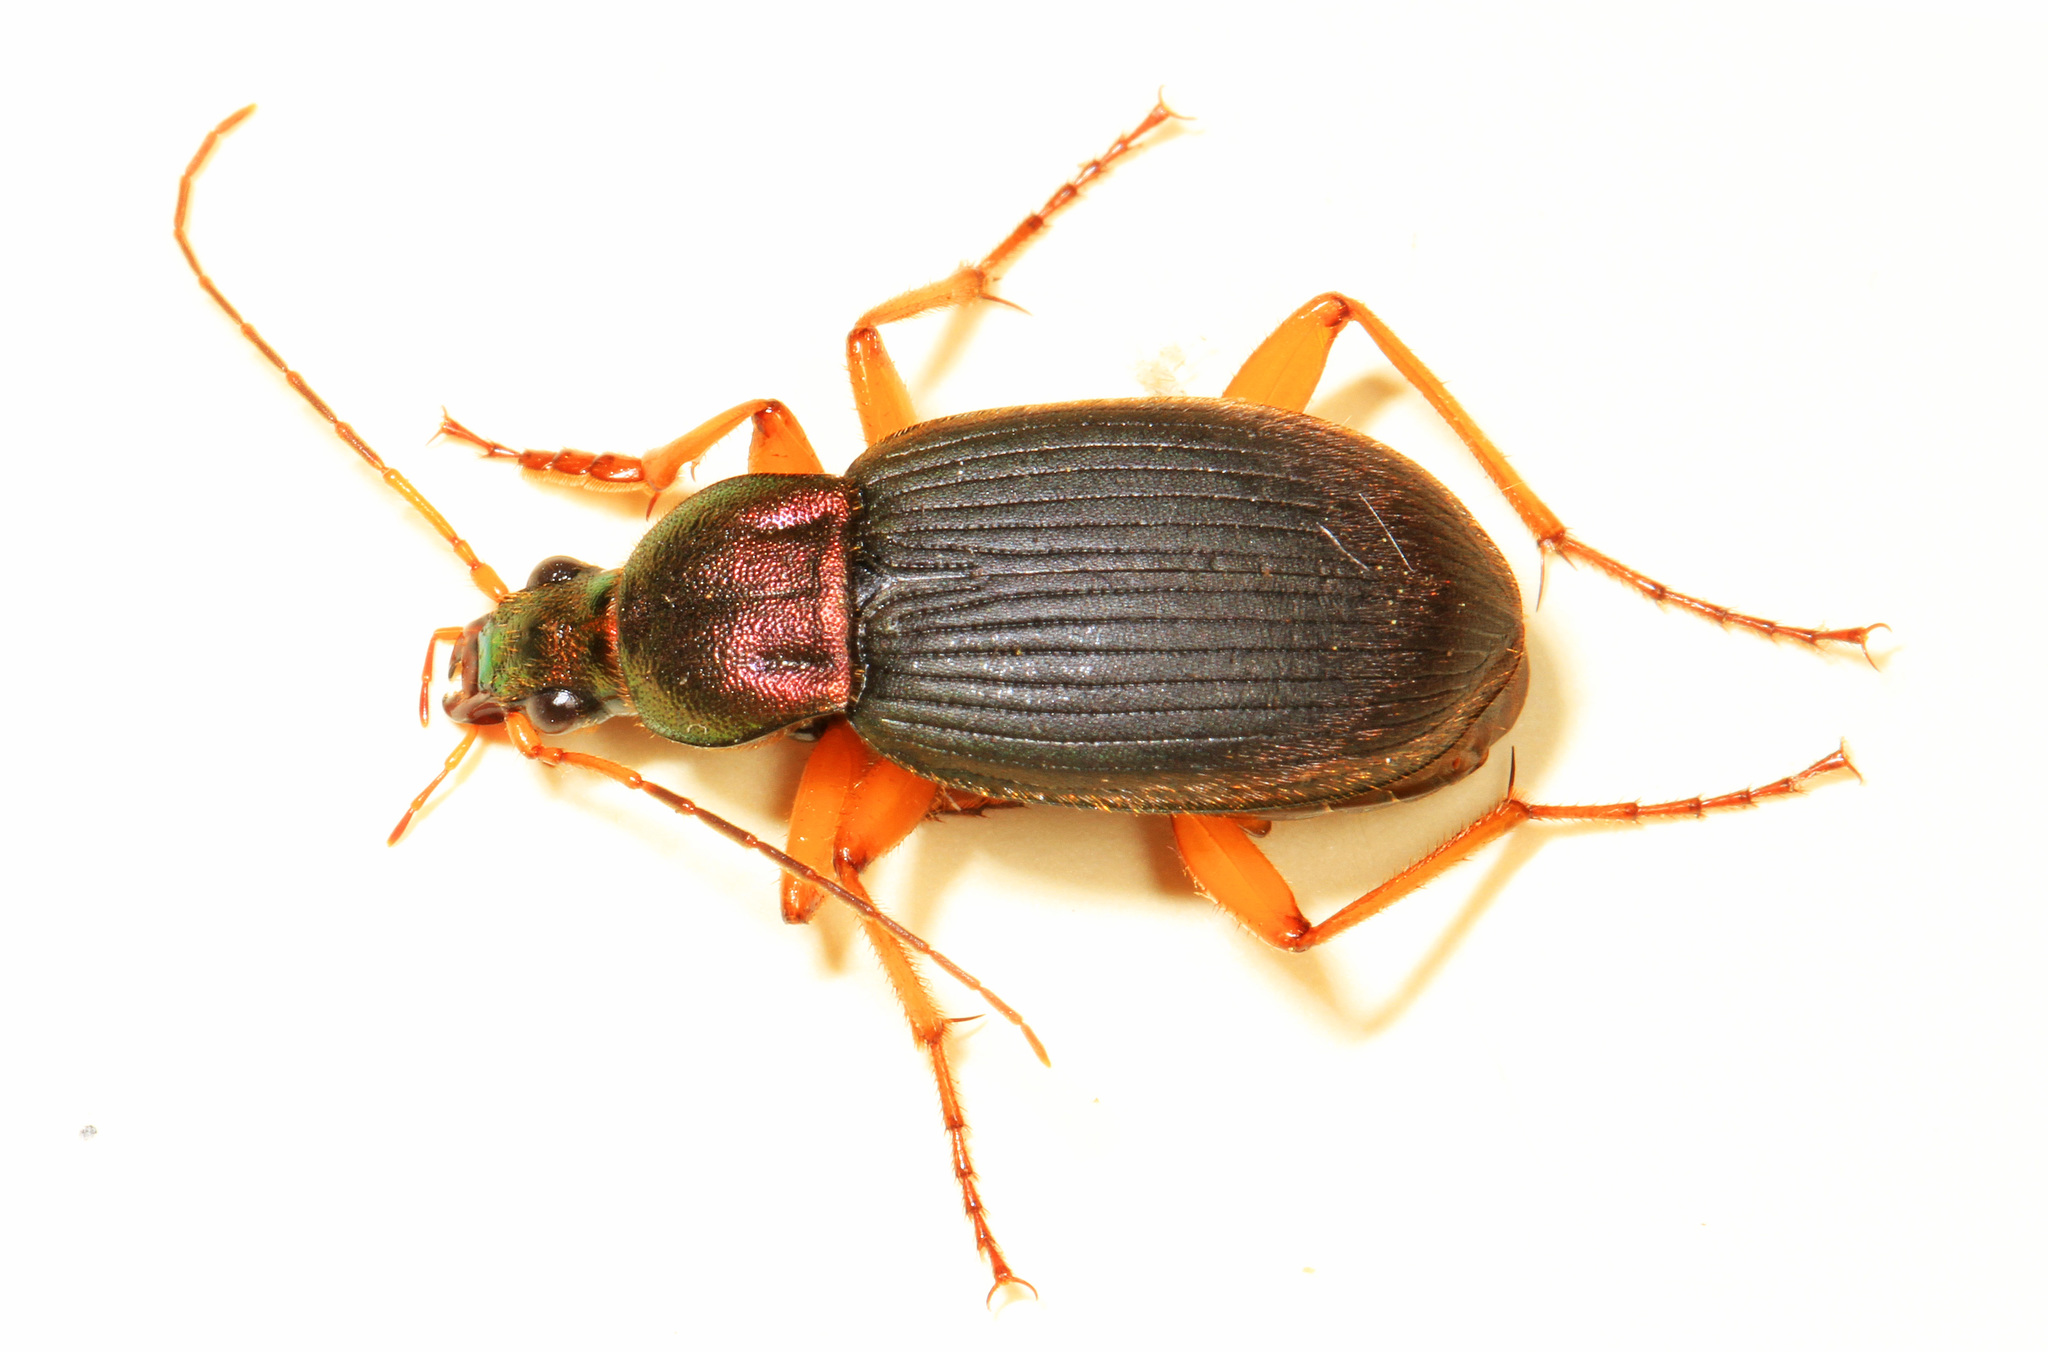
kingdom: Animalia
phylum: Arthropoda
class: Insecta
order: Coleoptera
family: Carabidae
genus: Chlaenius
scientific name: Chlaenius aestivus
